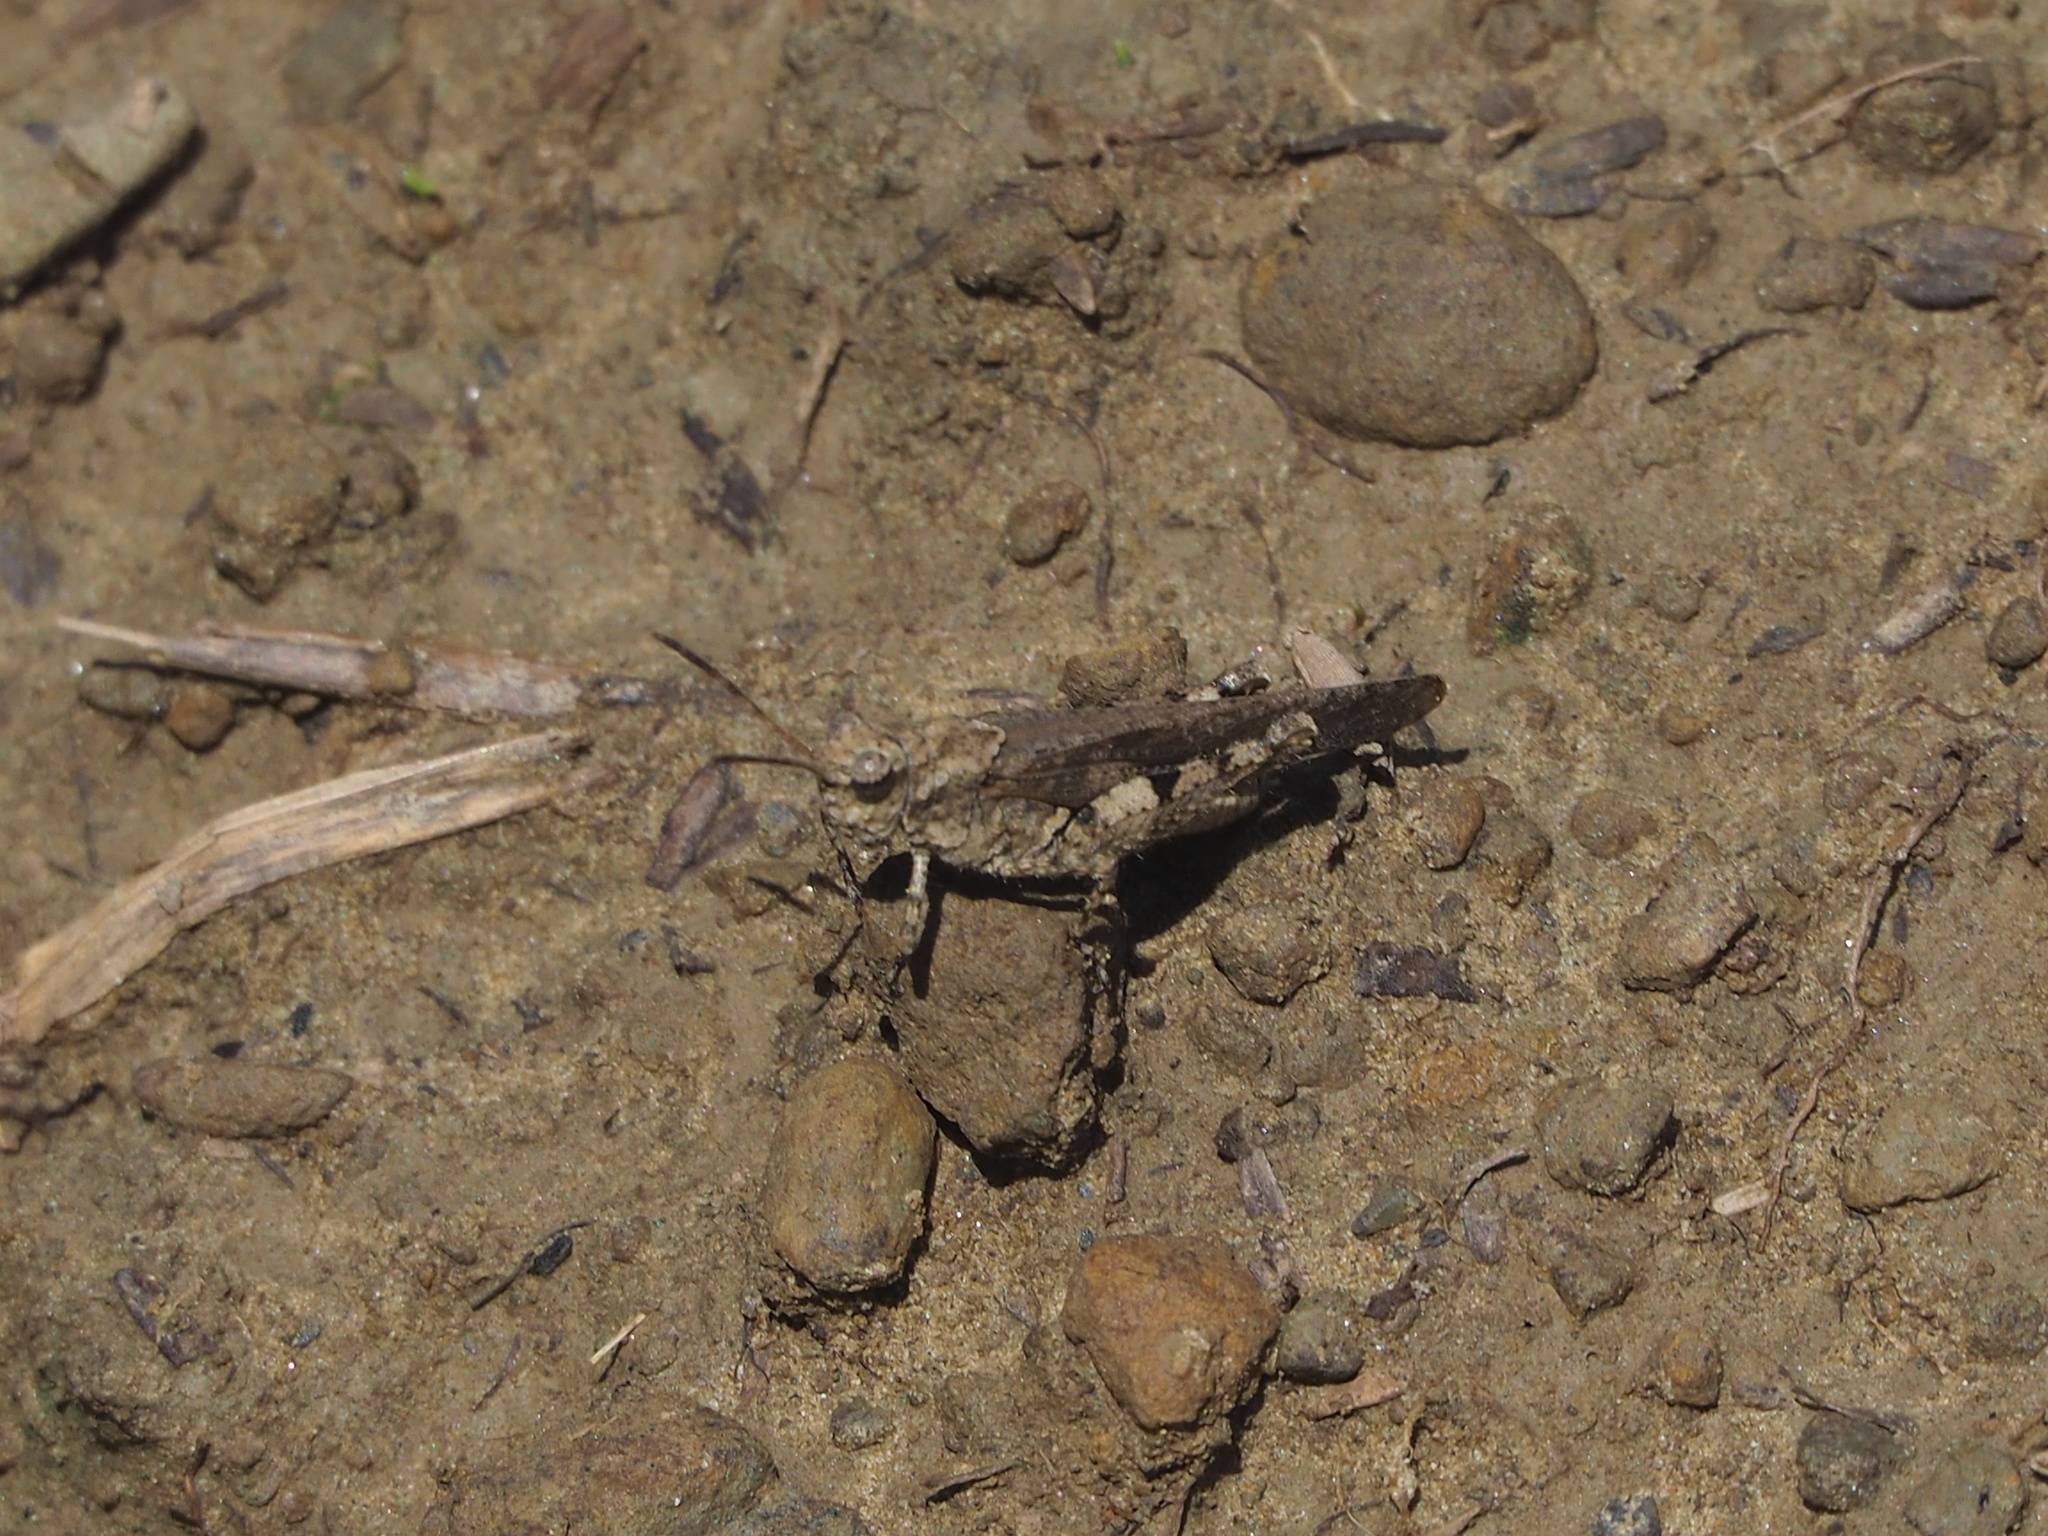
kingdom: Animalia
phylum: Arthropoda
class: Insecta
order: Orthoptera
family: Acrididae
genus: Trilophidia
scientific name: Trilophidia annulata
